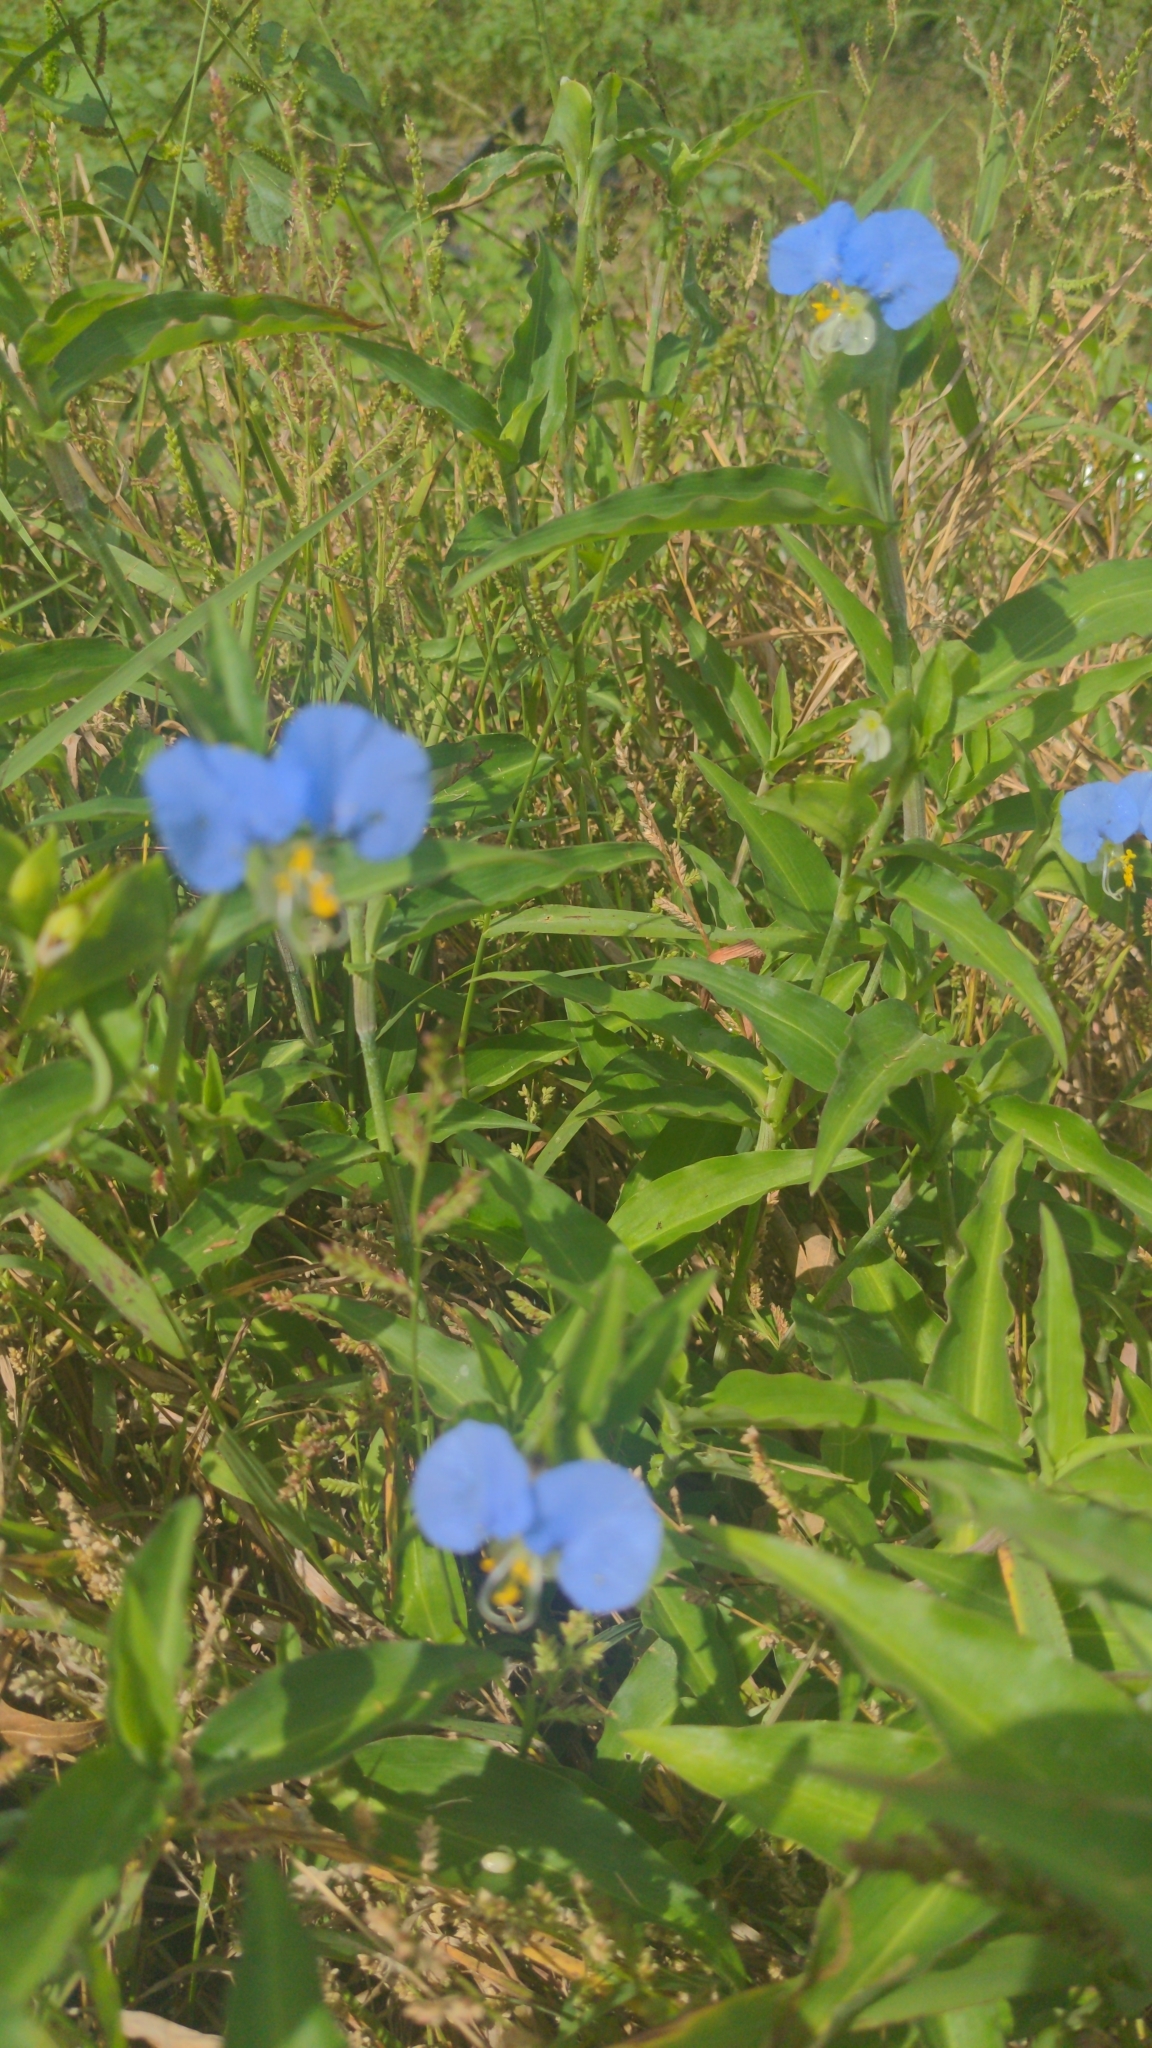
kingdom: Plantae
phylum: Tracheophyta
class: Liliopsida
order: Commelinales
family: Commelinaceae
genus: Commelina
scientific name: Commelina erecta
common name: Blousel blommetjie
